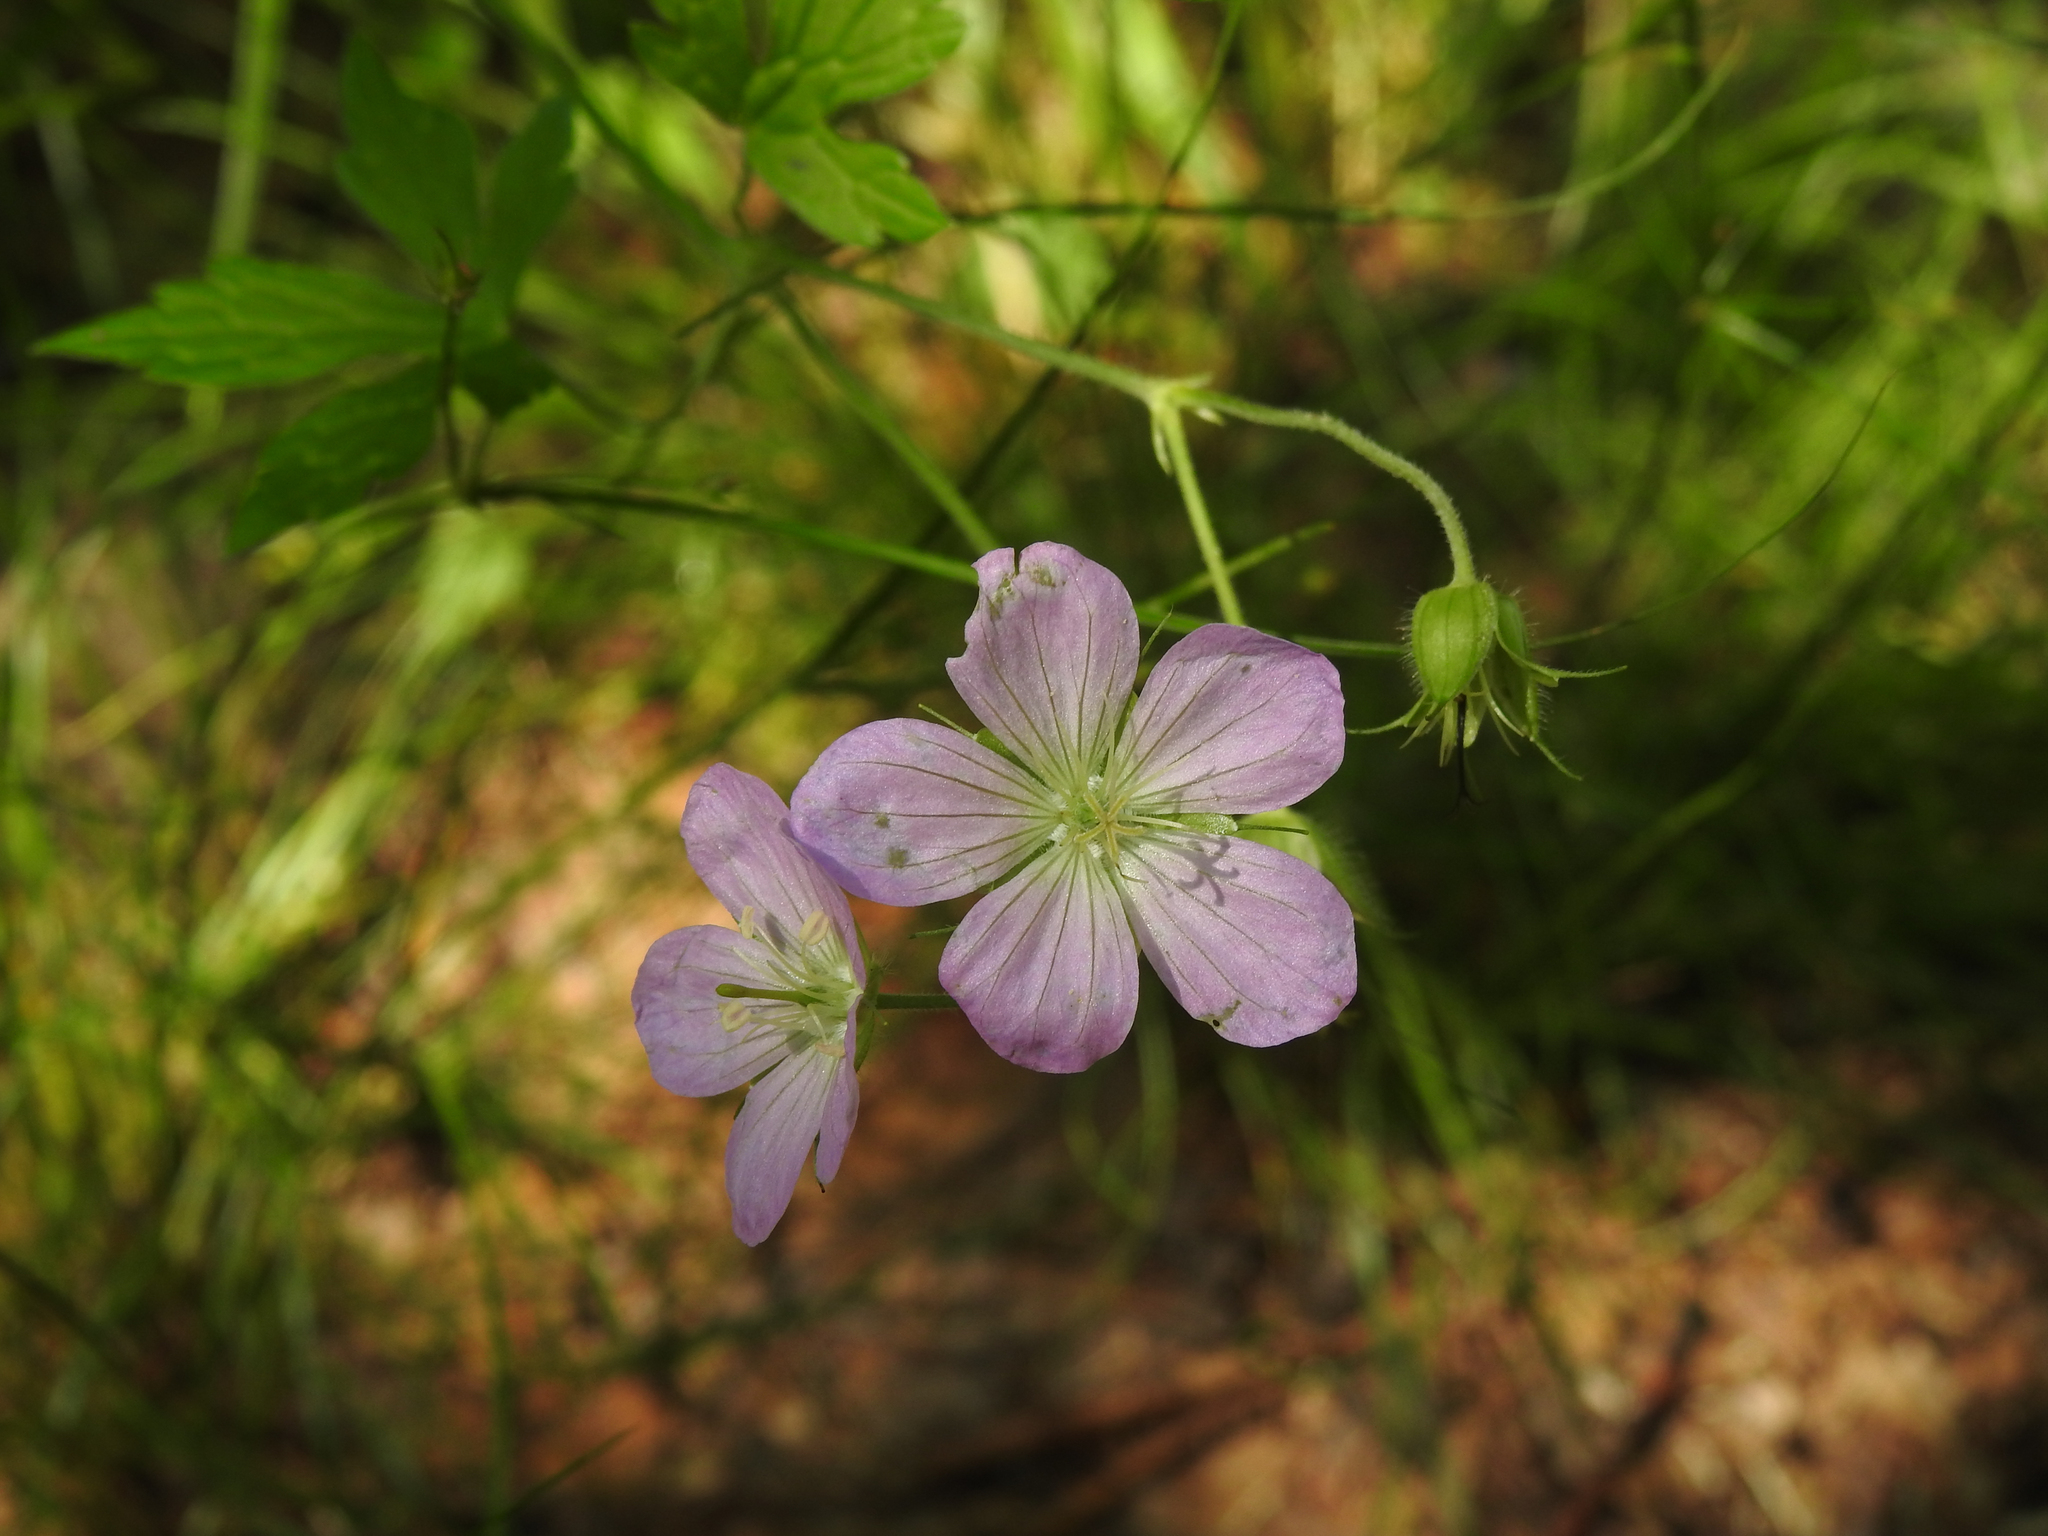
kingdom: Plantae
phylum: Tracheophyta
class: Magnoliopsida
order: Geraniales
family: Geraniaceae
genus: Geranium
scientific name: Geranium maculatum
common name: Spotted geranium
